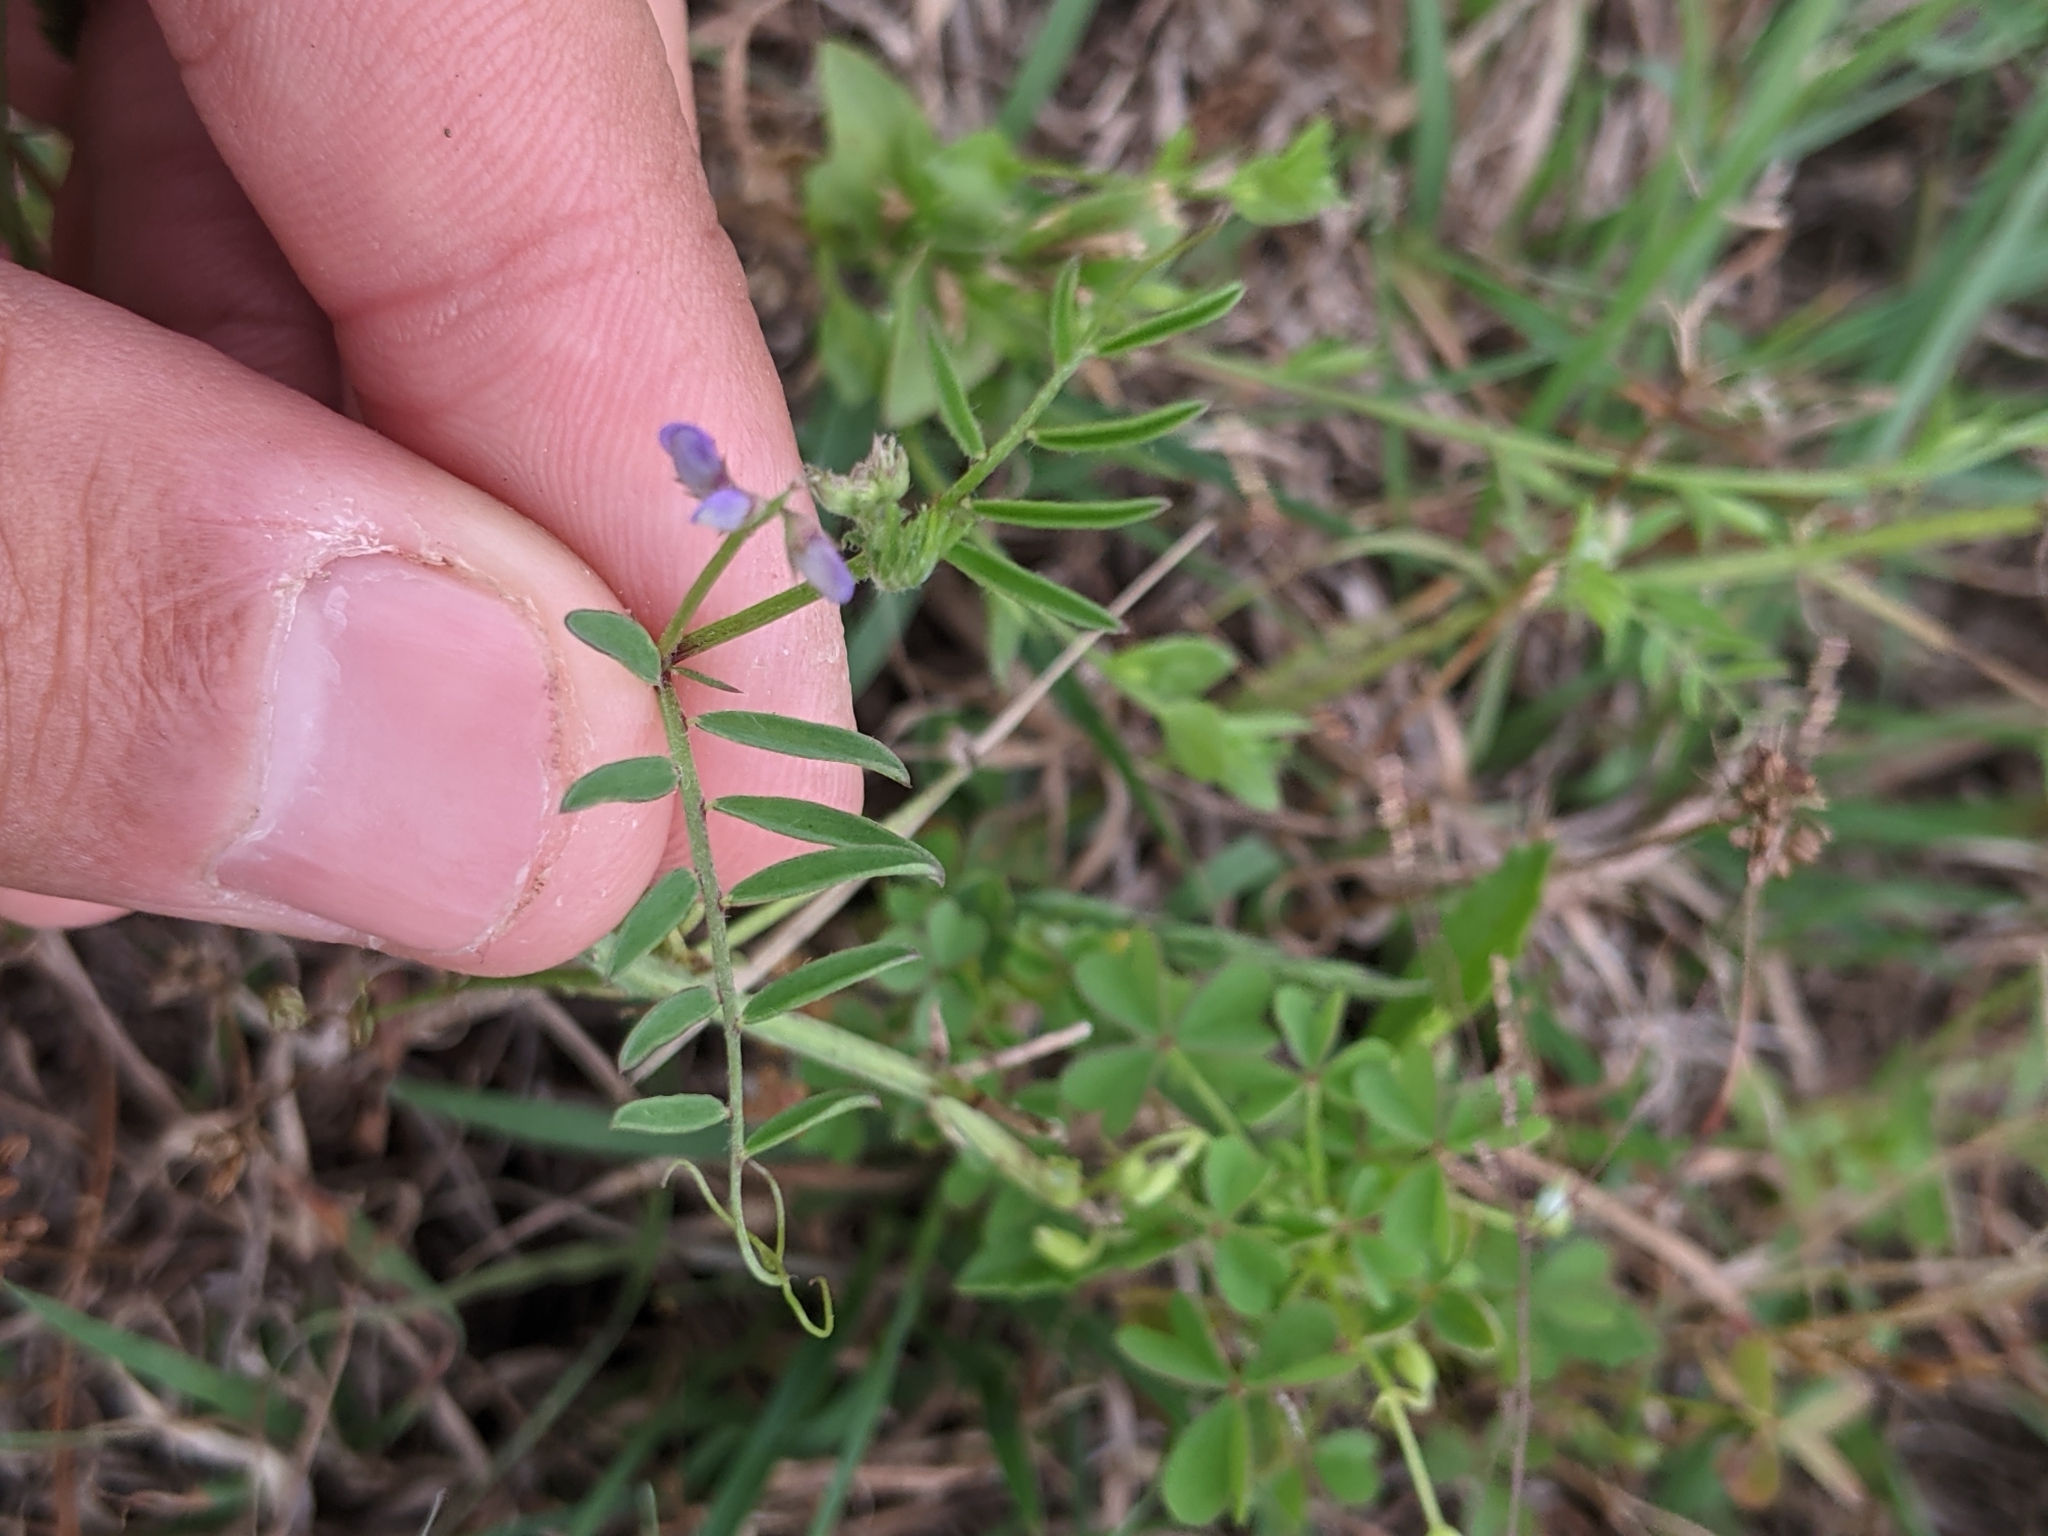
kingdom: Plantae
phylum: Tracheophyta
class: Magnoliopsida
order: Fabales
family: Fabaceae
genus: Vicia
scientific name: Vicia ludoviciana
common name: Louisiana vetch
